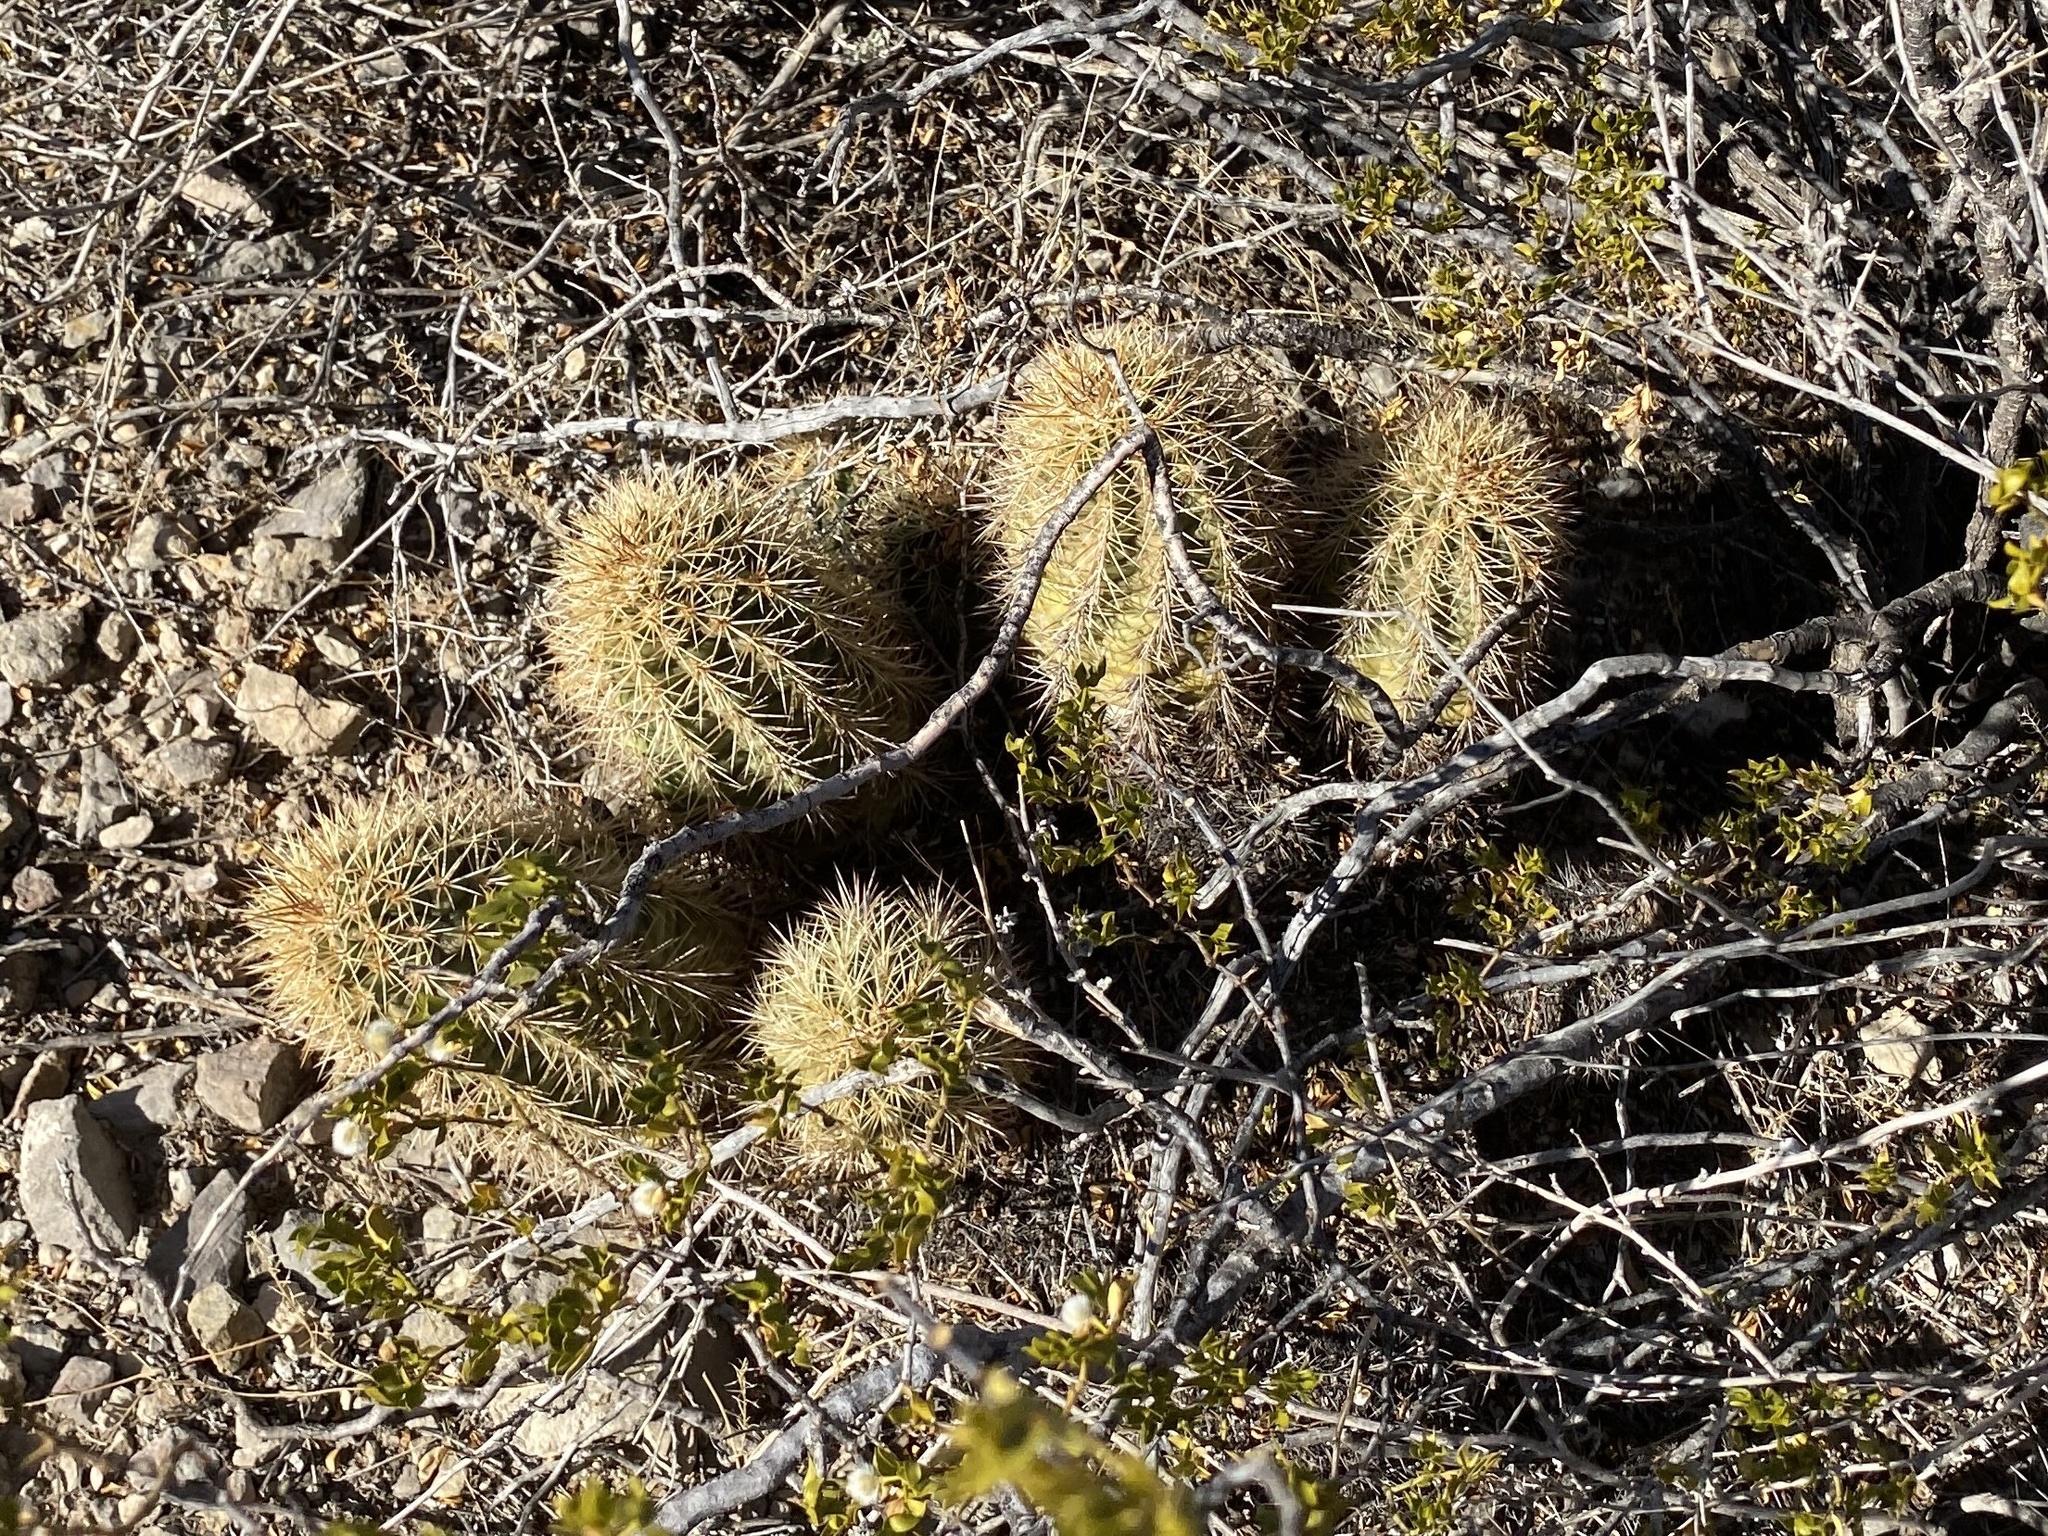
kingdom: Plantae
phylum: Tracheophyta
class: Magnoliopsida
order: Caryophyllales
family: Cactaceae
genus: Echinocereus
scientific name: Echinocereus coccineus
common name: Scarlet hedgehog cactus
